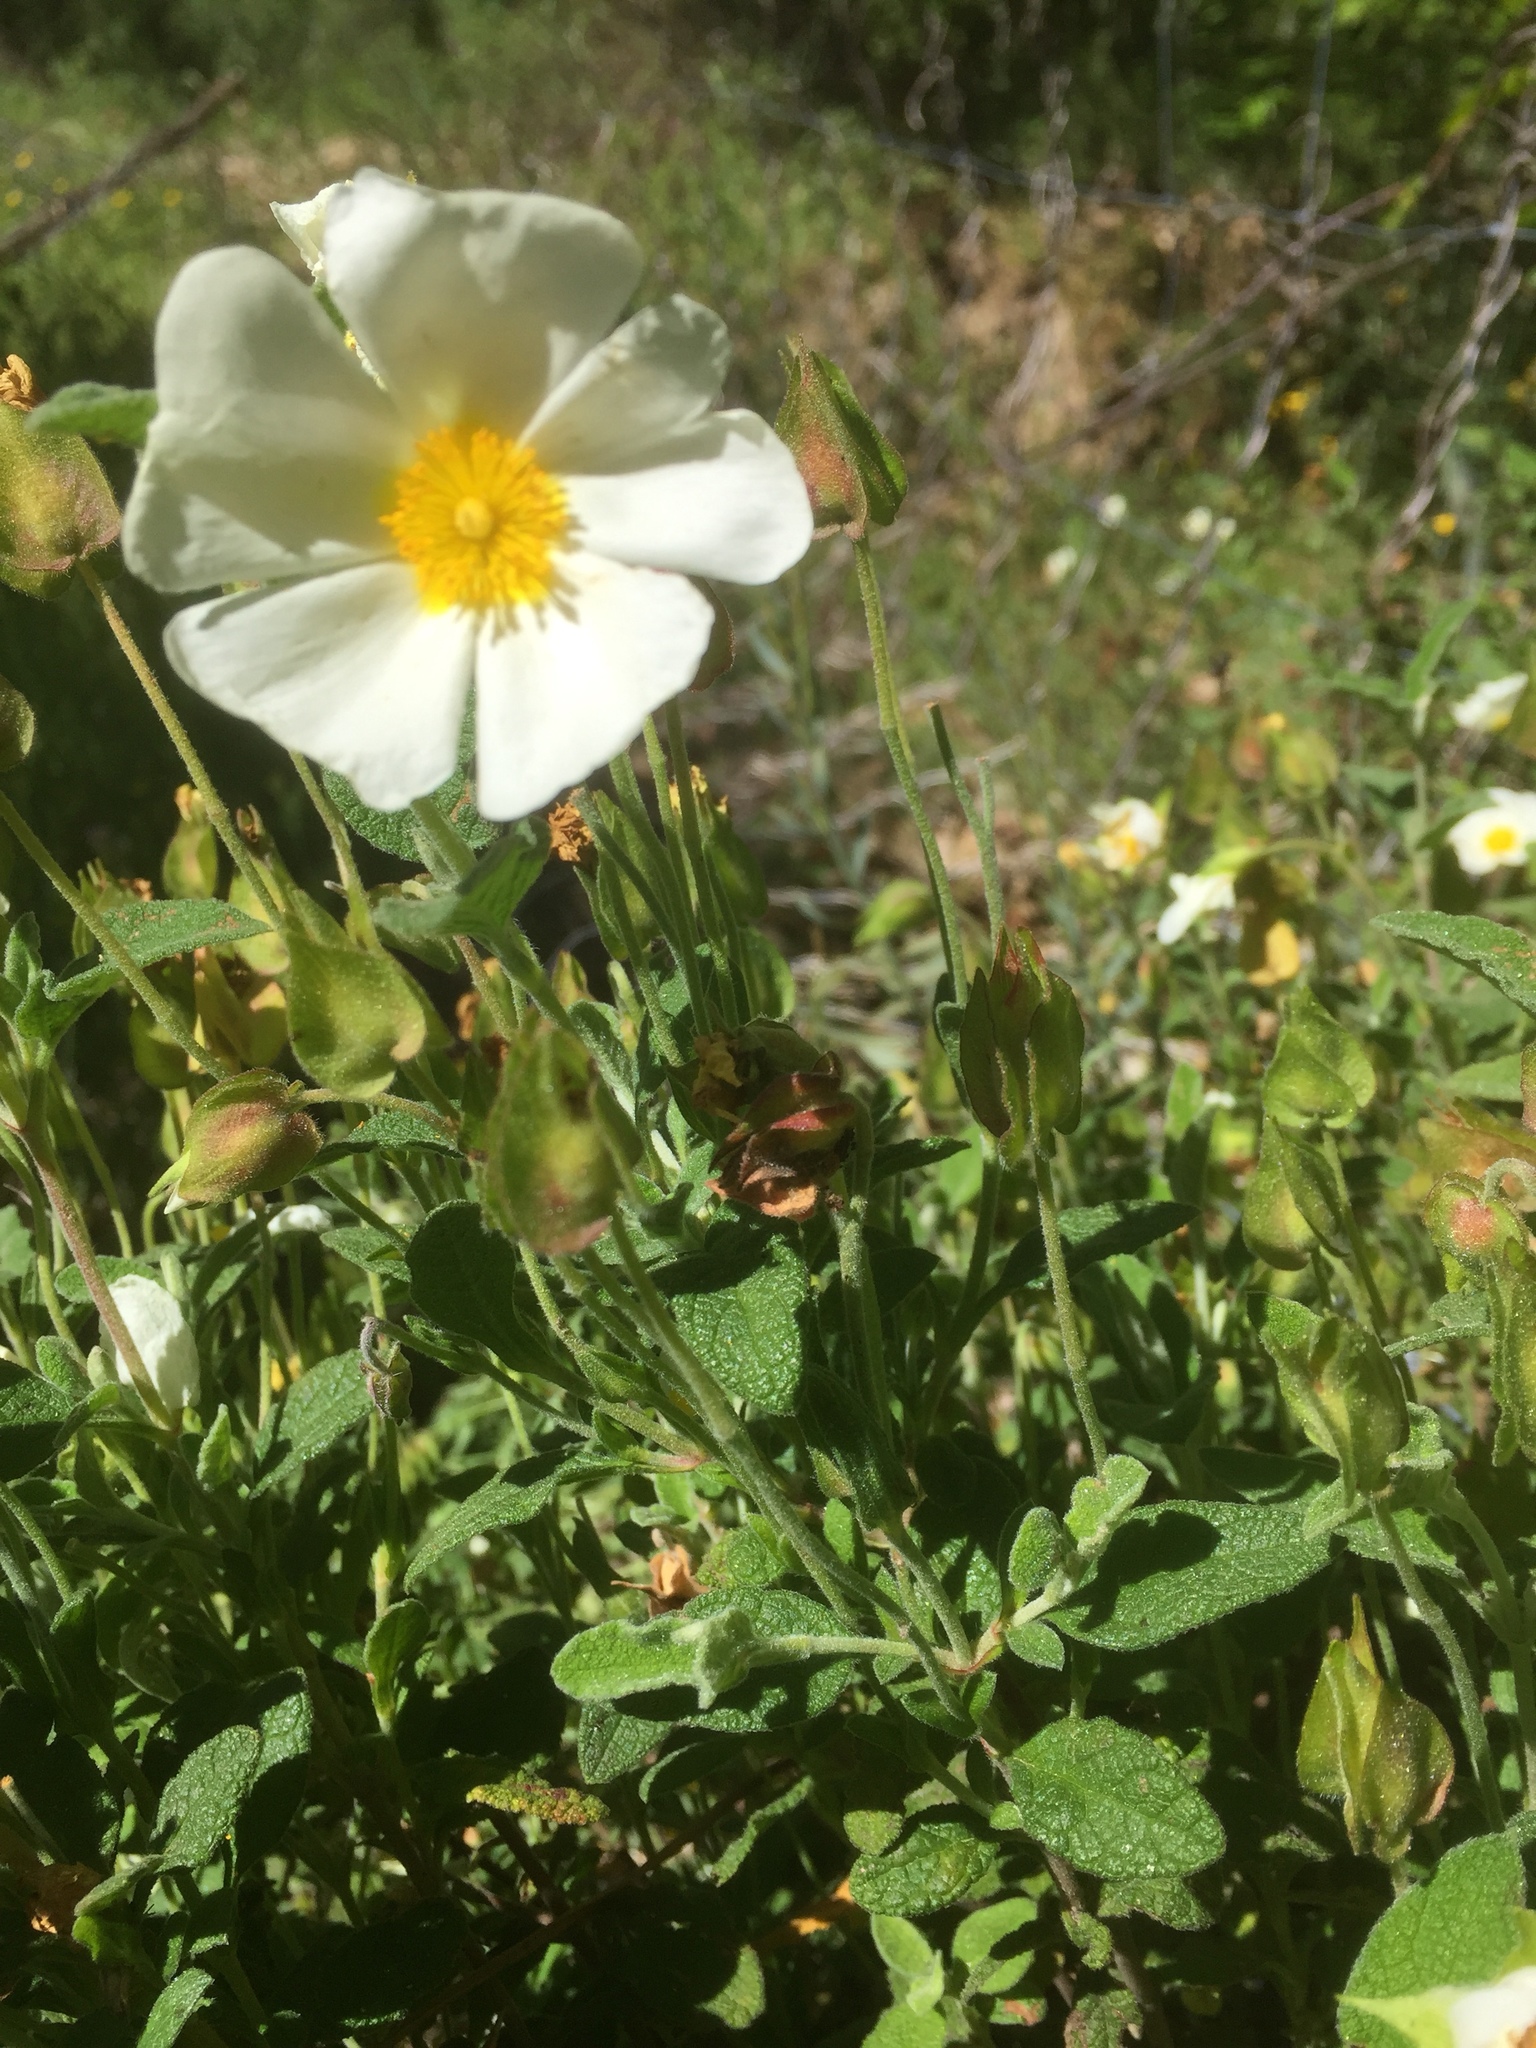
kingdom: Plantae
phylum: Tracheophyta
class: Magnoliopsida
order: Malvales
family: Cistaceae
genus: Cistus
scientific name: Cistus salviifolius
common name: Salvia cistus
